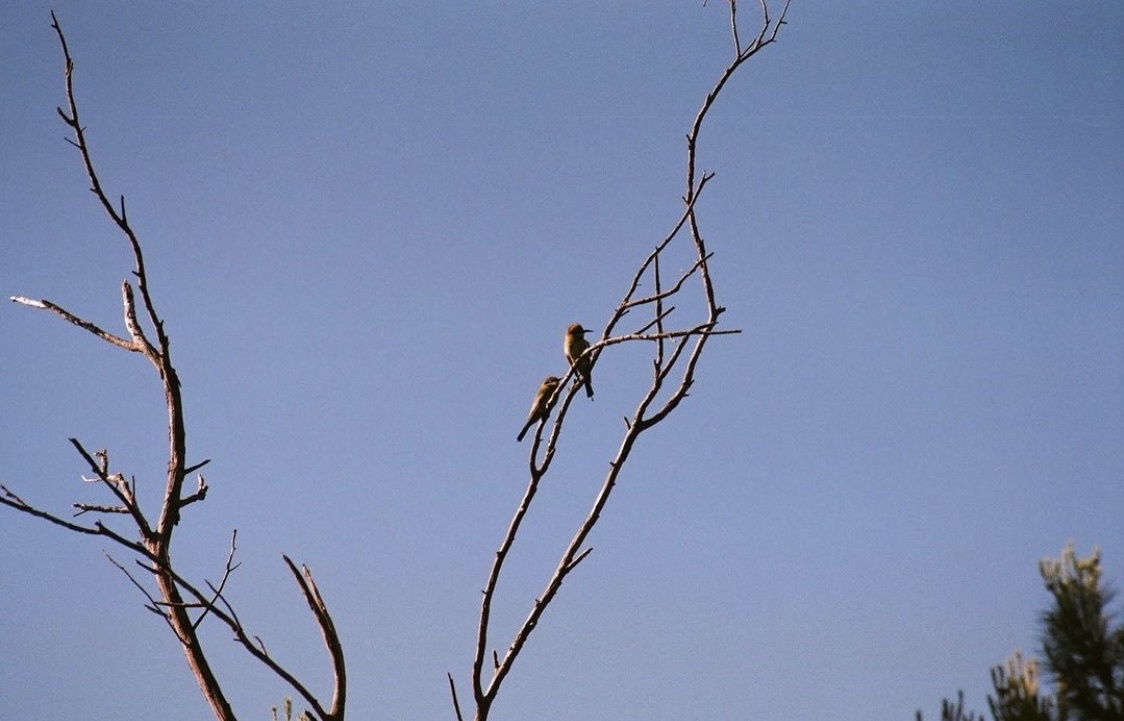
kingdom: Animalia
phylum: Chordata
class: Aves
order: Coraciiformes
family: Meropidae
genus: Merops
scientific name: Merops ornatus
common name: Rainbow bee-eater
